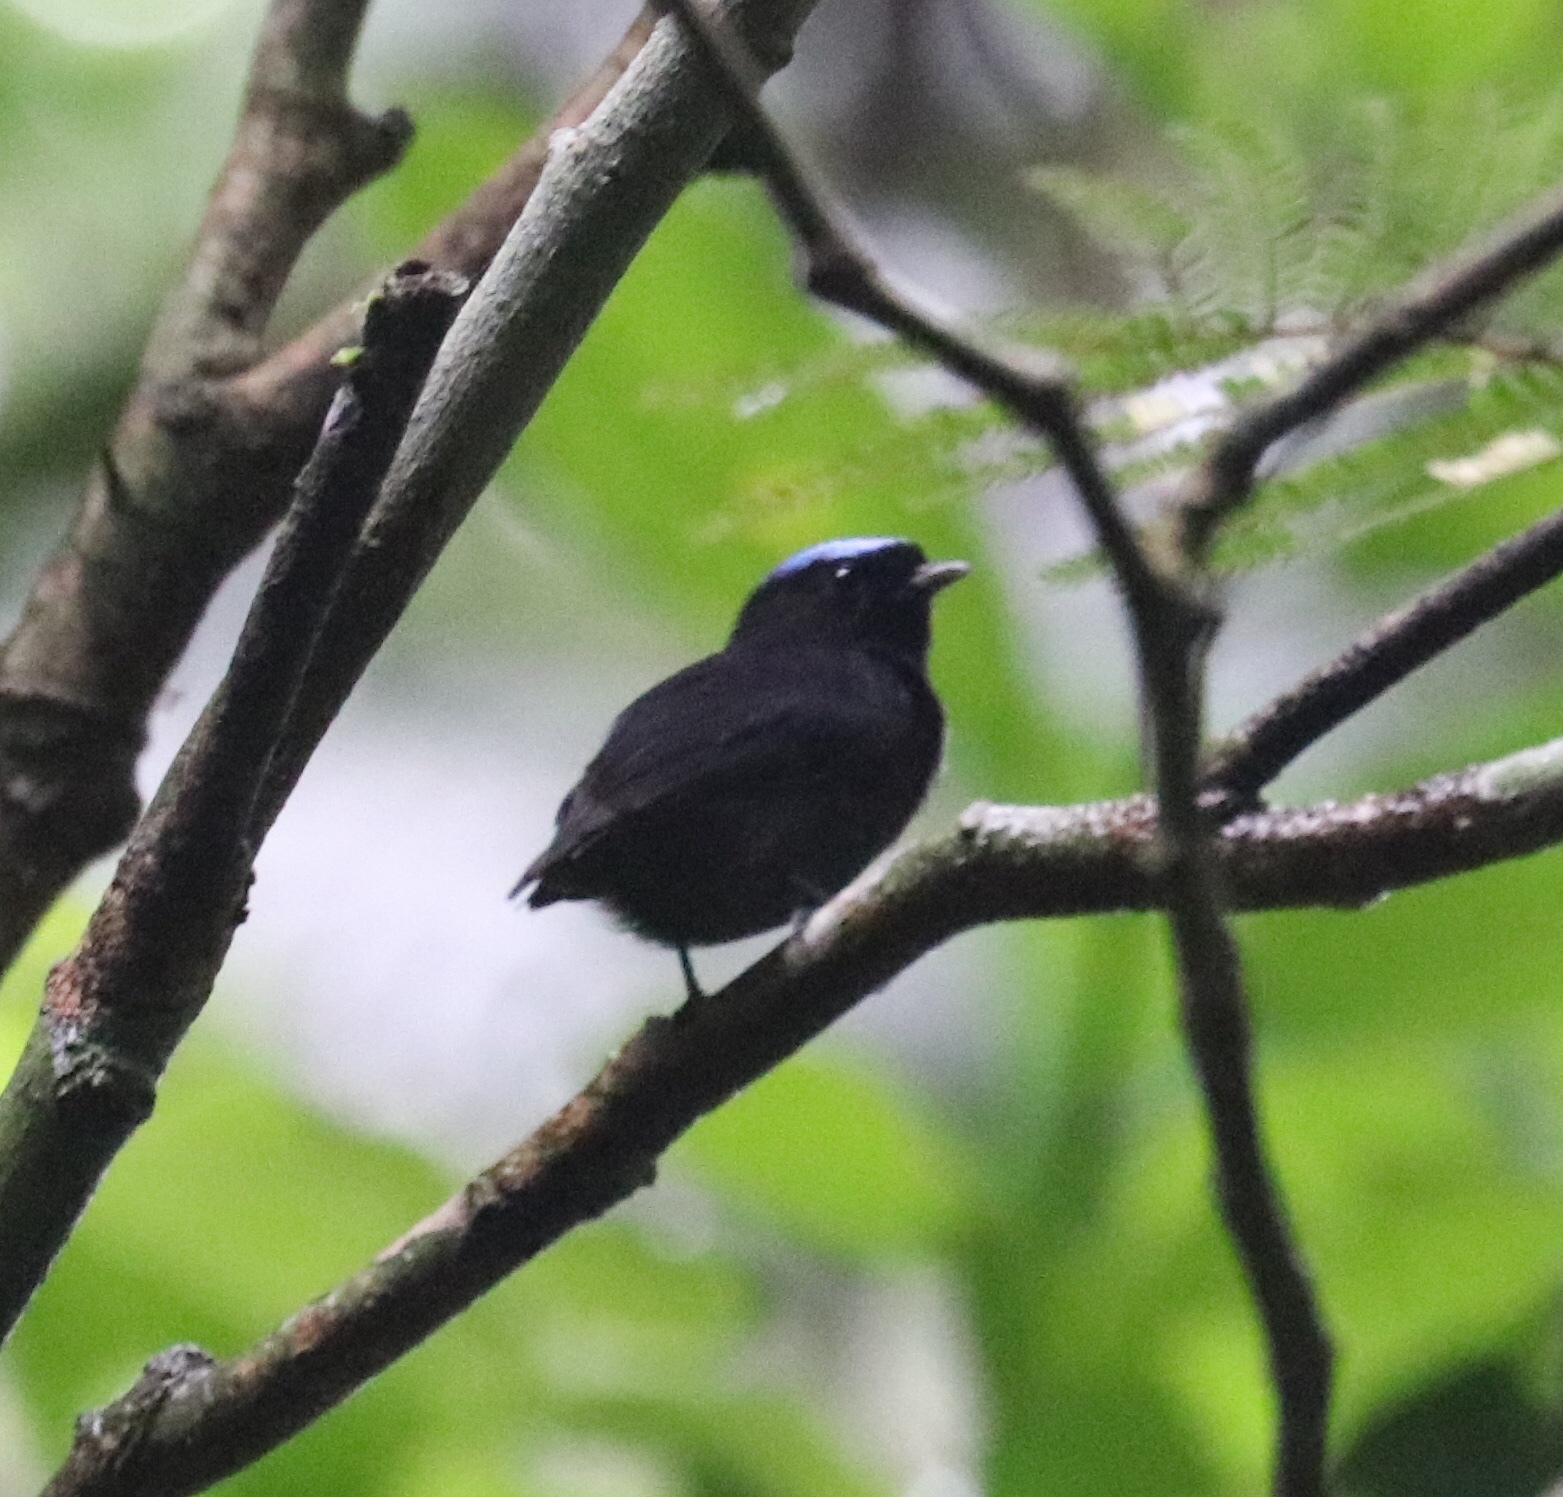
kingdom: Animalia
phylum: Chordata
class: Aves
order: Passeriformes
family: Pipridae
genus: Lepidothrix
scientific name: Lepidothrix coronata
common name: Blue-crowned manakin
